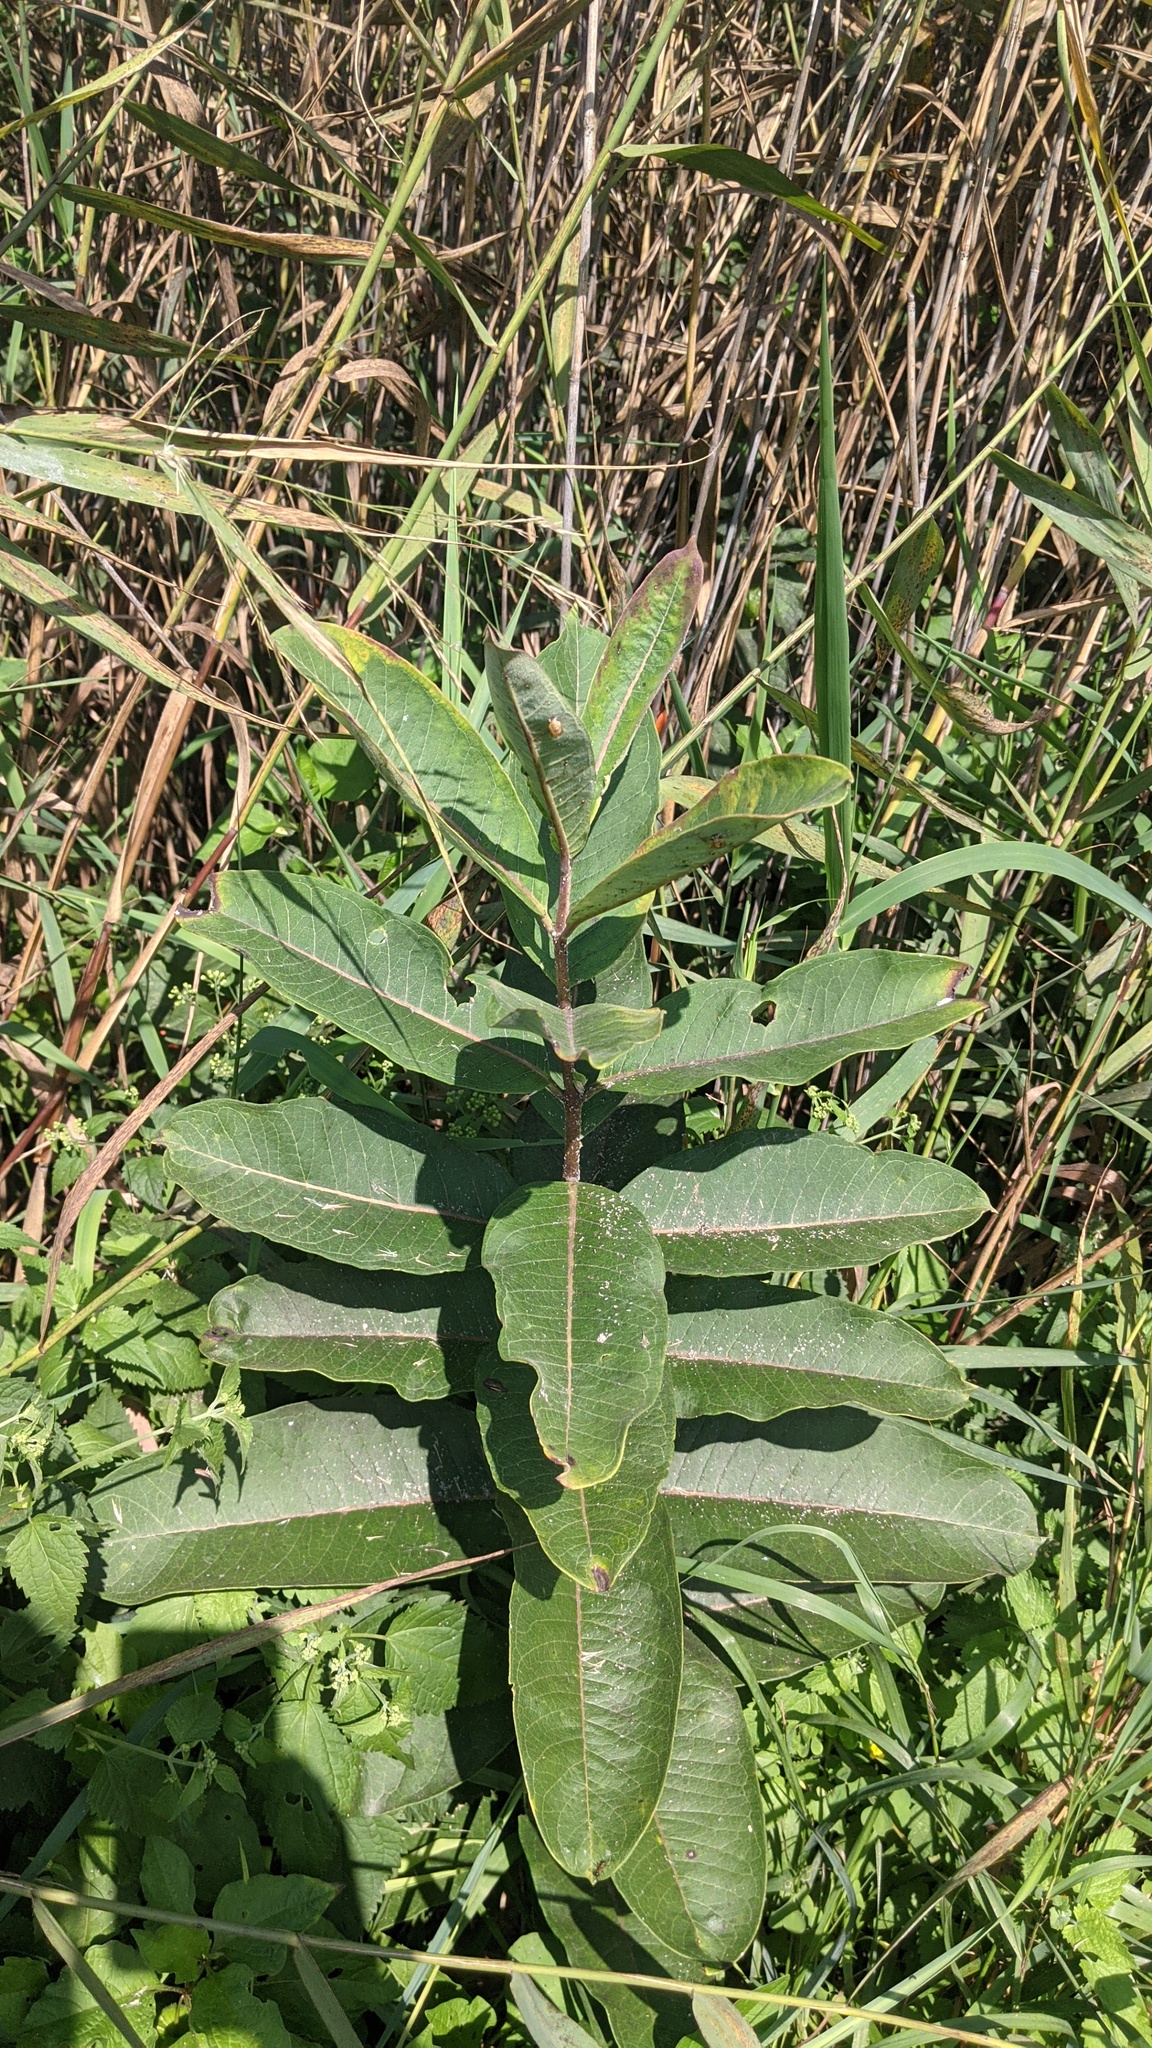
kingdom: Plantae
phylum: Tracheophyta
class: Magnoliopsida
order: Gentianales
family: Apocynaceae
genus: Asclepias
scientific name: Asclepias syriaca
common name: Common milkweed
